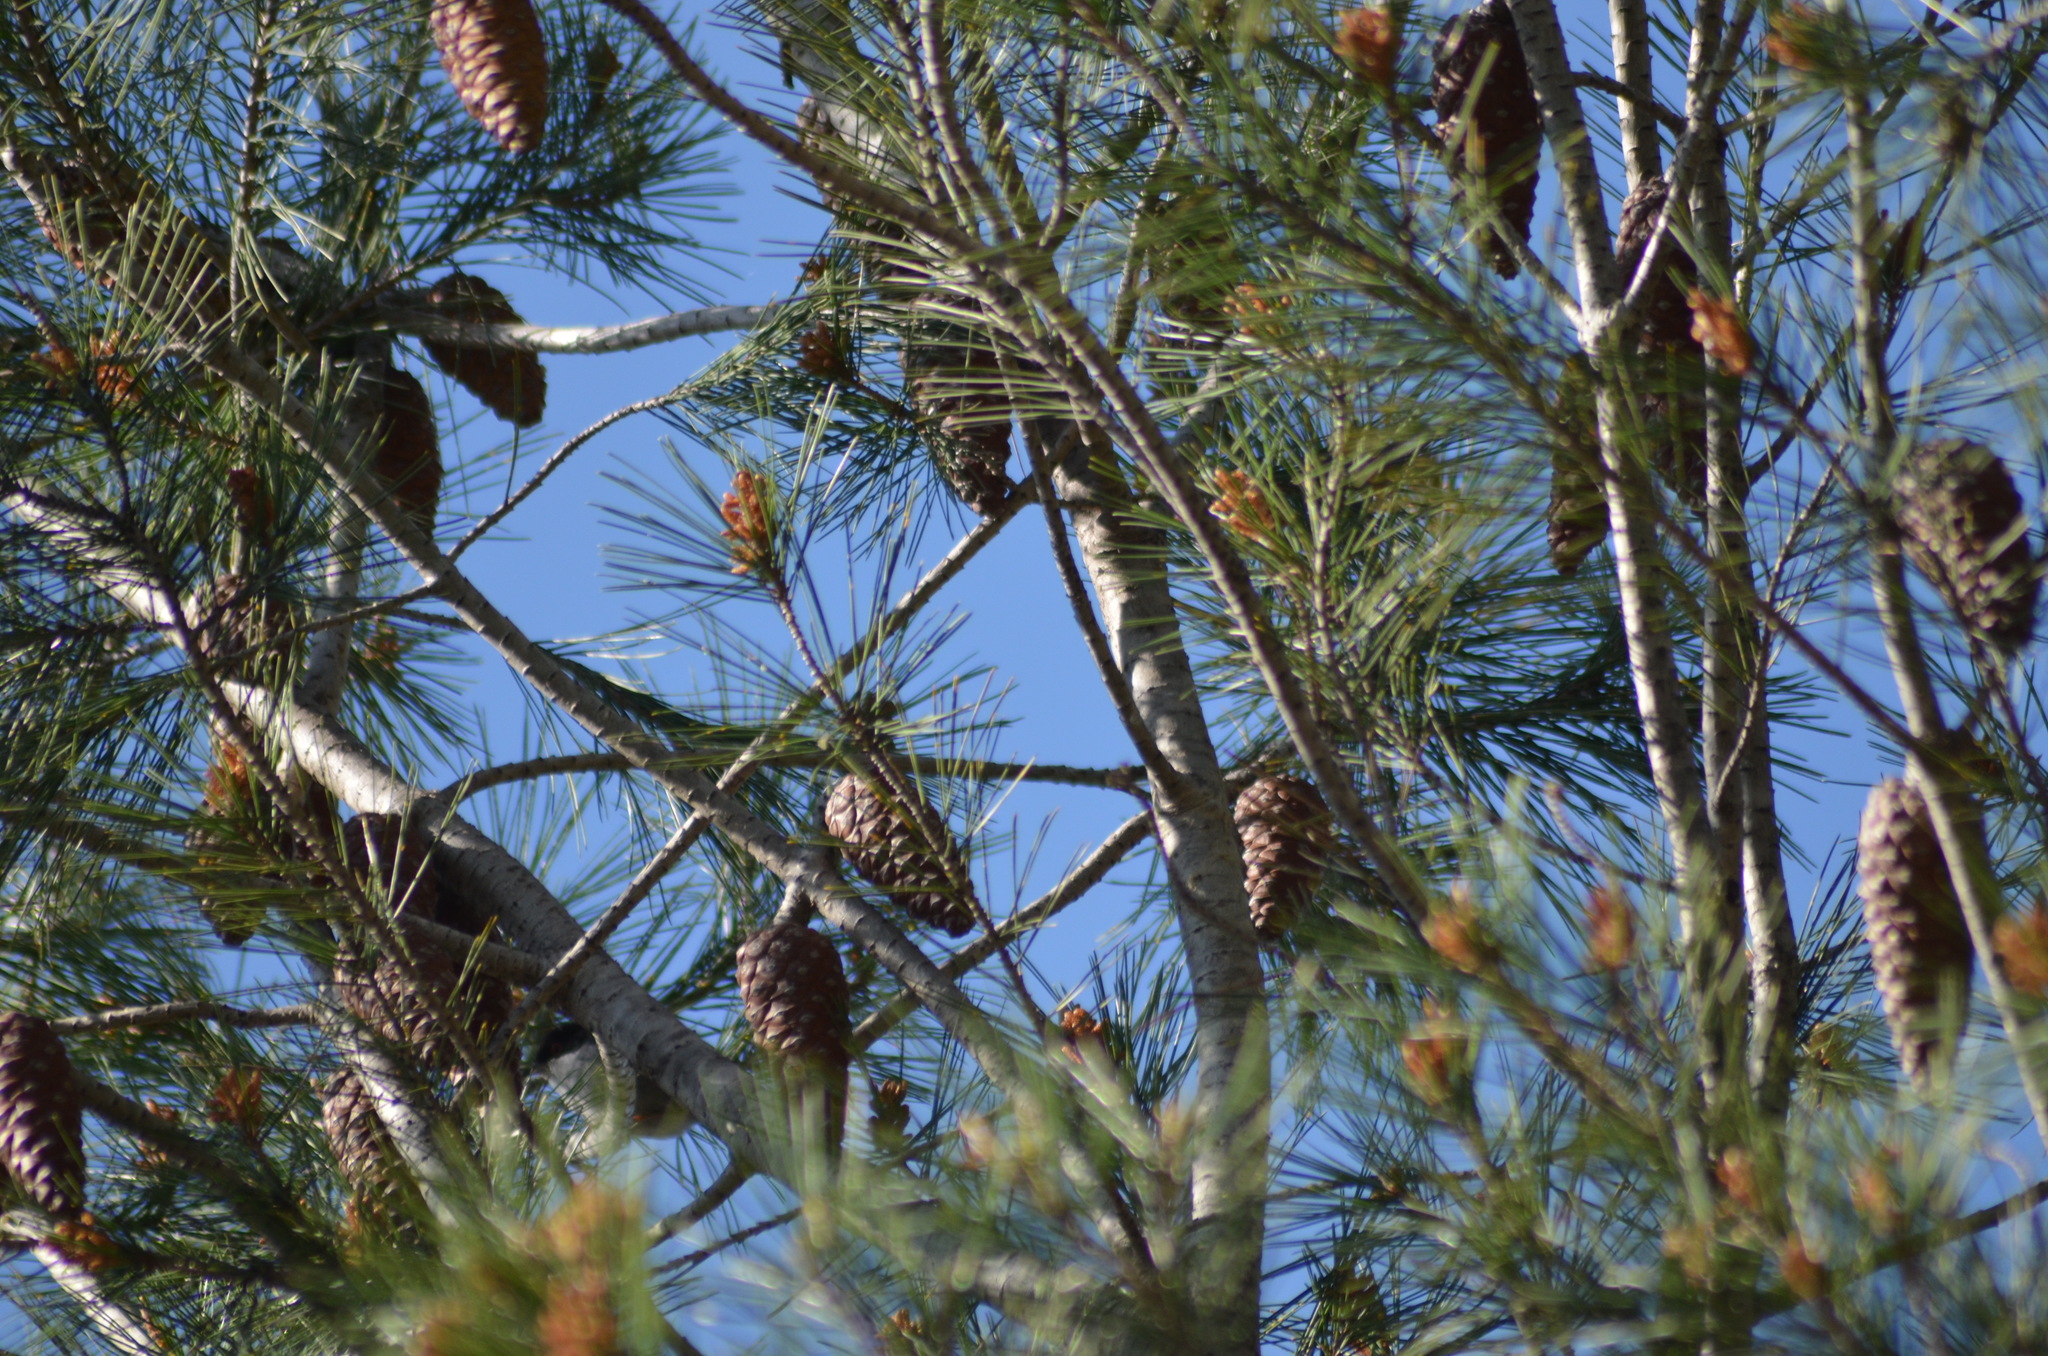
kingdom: Plantae
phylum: Tracheophyta
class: Pinopsida
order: Pinales
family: Pinaceae
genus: Pinus
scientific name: Pinus halepensis
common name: Aleppo pine
